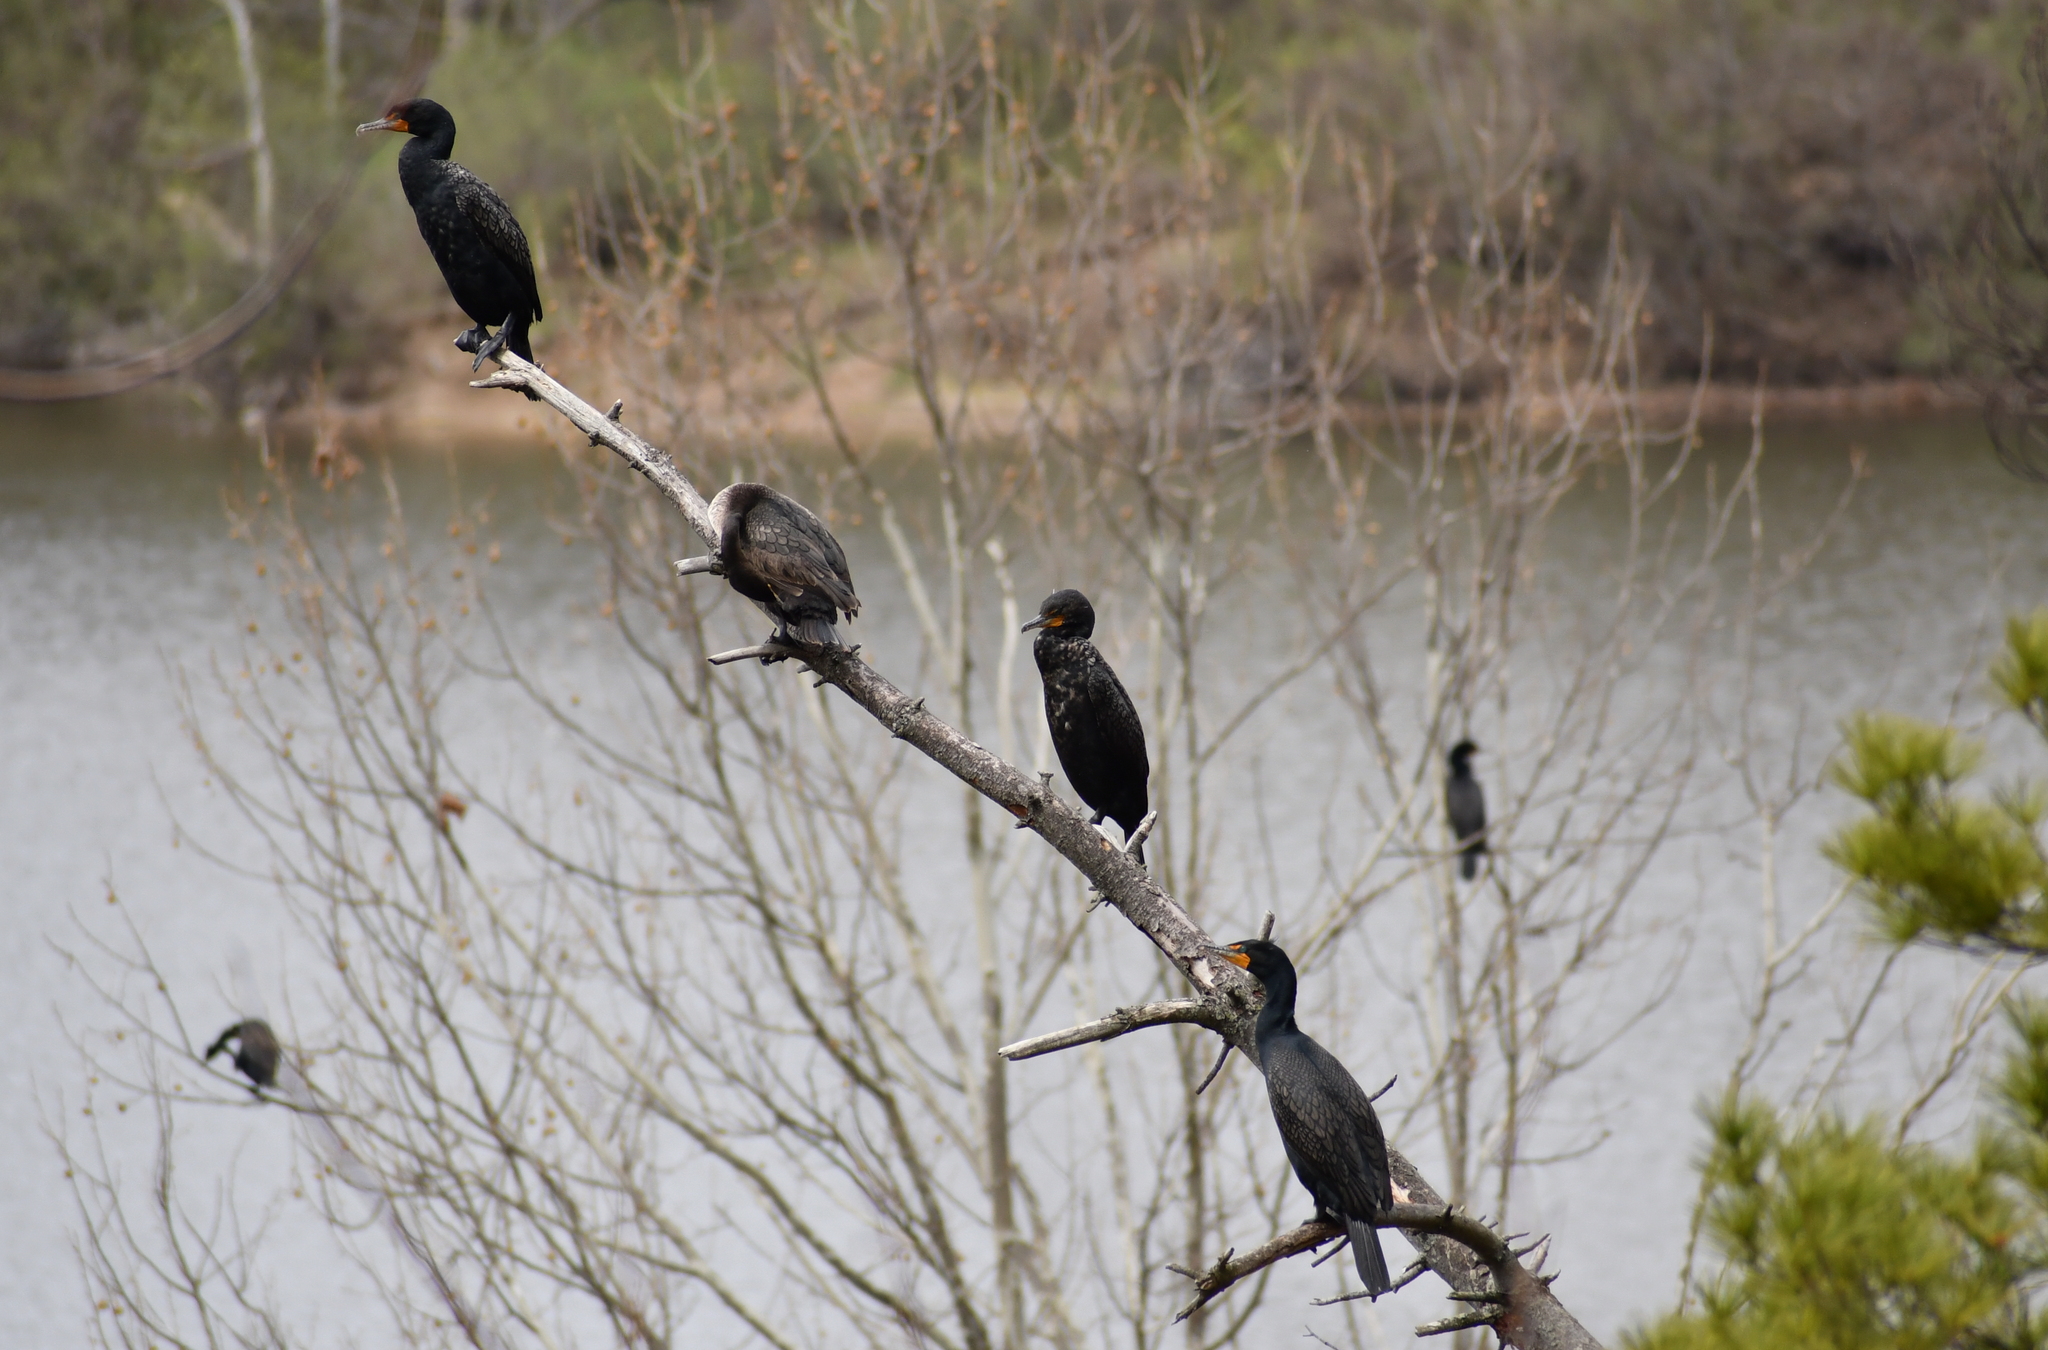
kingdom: Animalia
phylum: Chordata
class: Aves
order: Suliformes
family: Phalacrocoracidae
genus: Phalacrocorax
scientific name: Phalacrocorax auritus
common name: Double-crested cormorant
